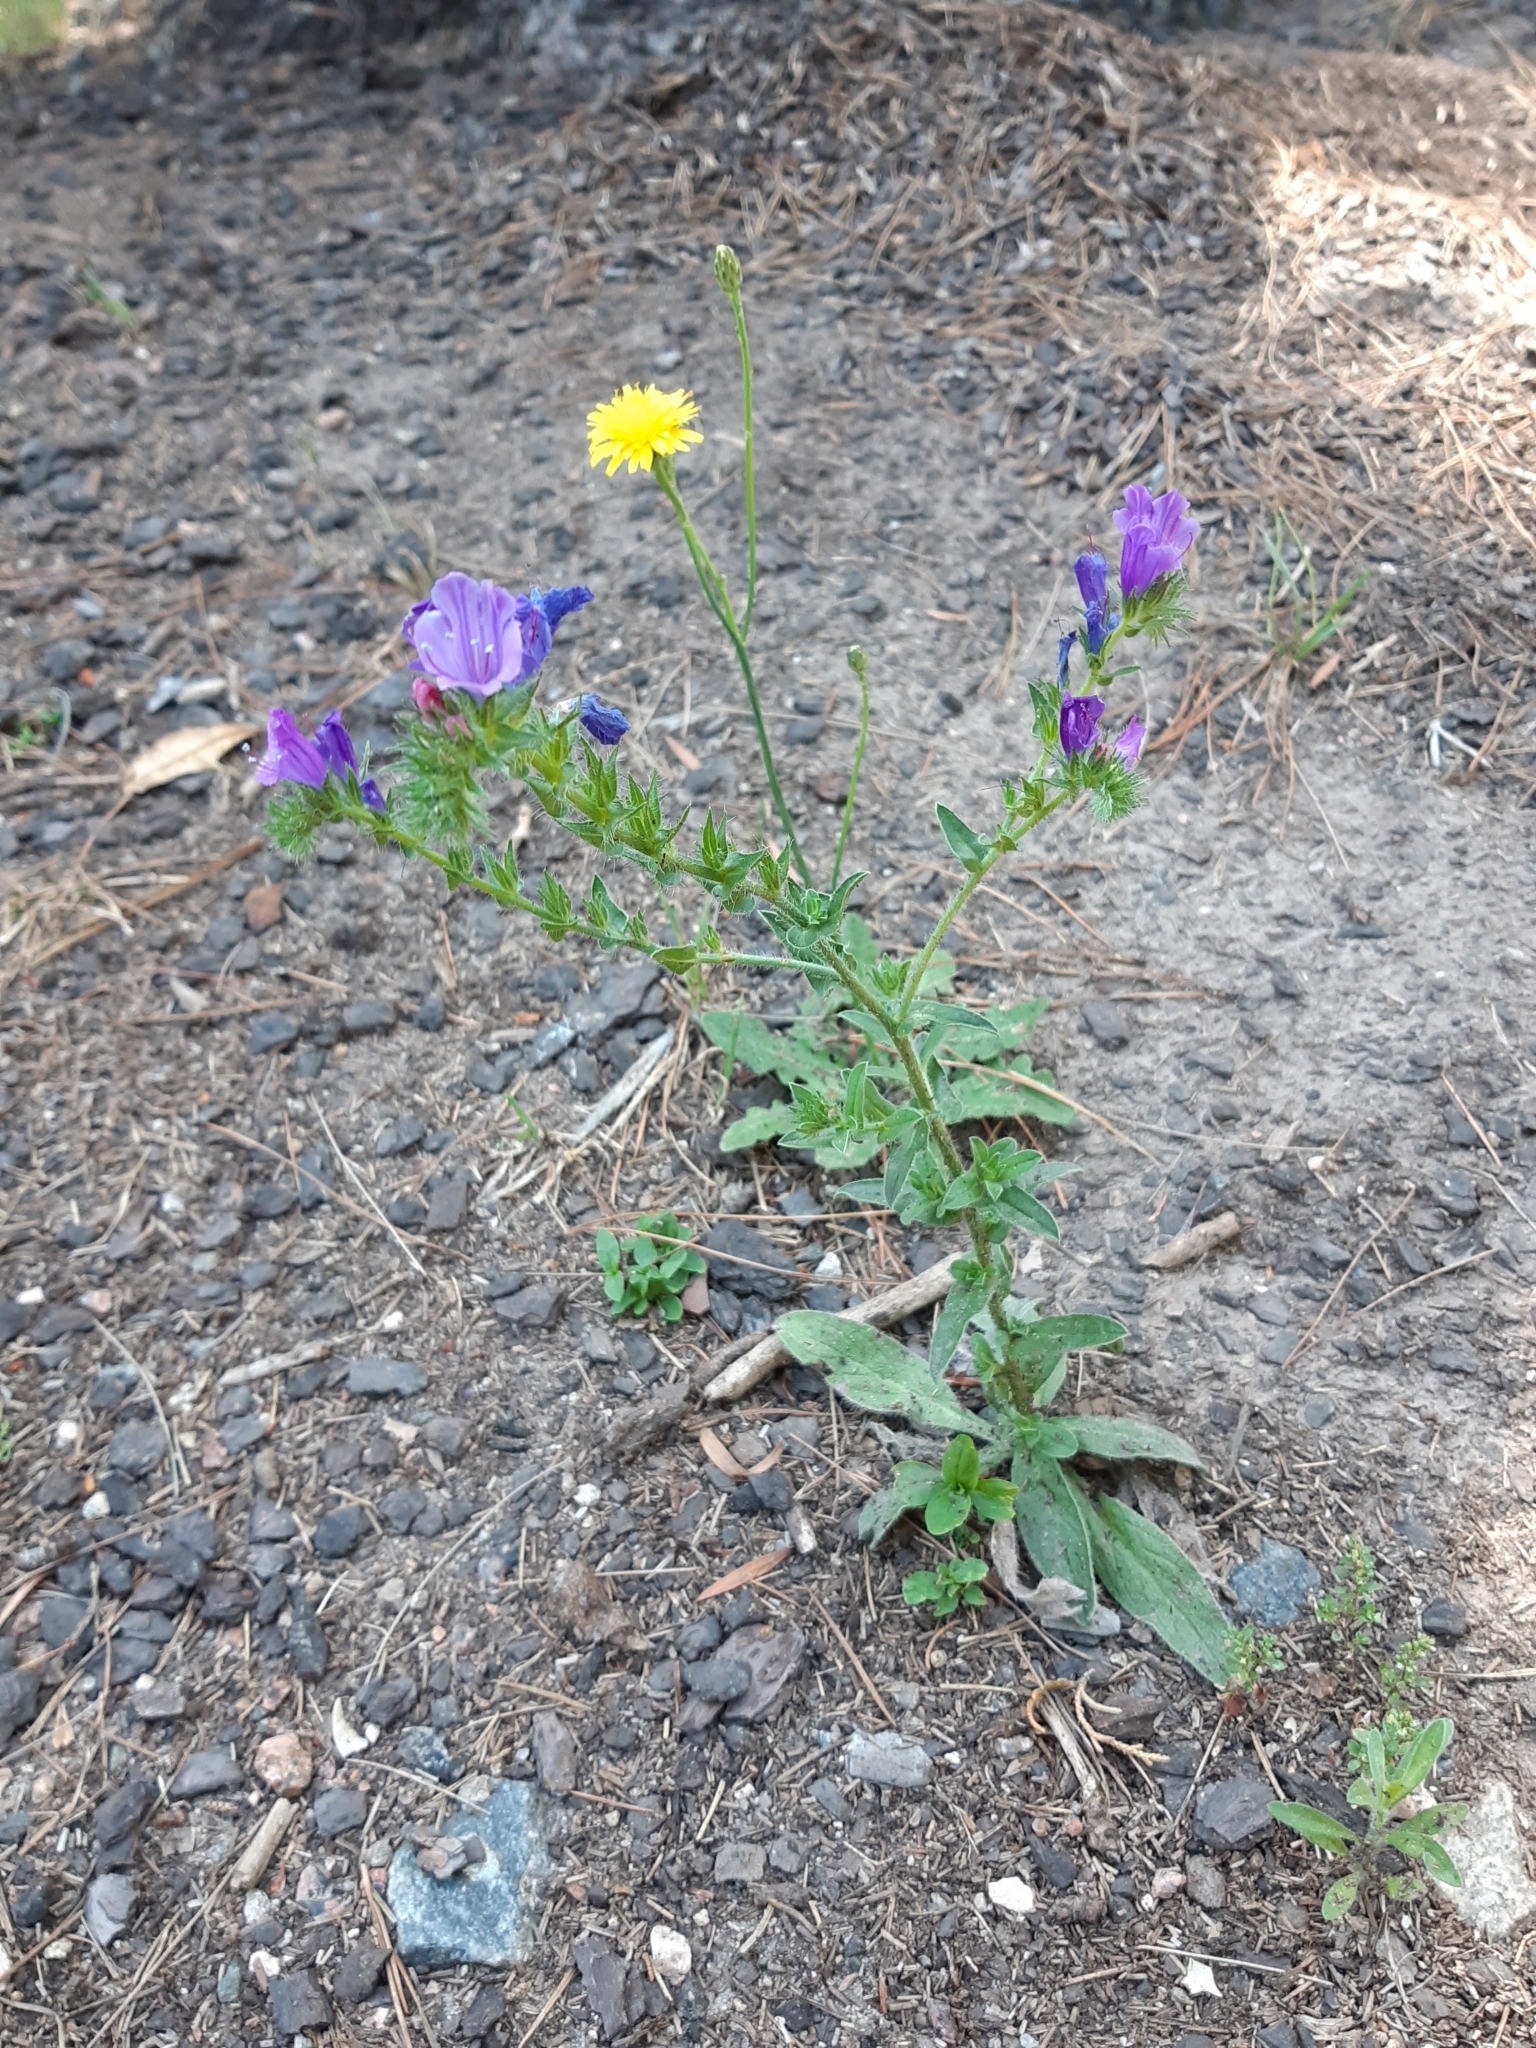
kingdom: Plantae
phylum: Tracheophyta
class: Magnoliopsida
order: Boraginales
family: Boraginaceae
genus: Echium
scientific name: Echium plantagineum
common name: Purple viper's-bugloss
